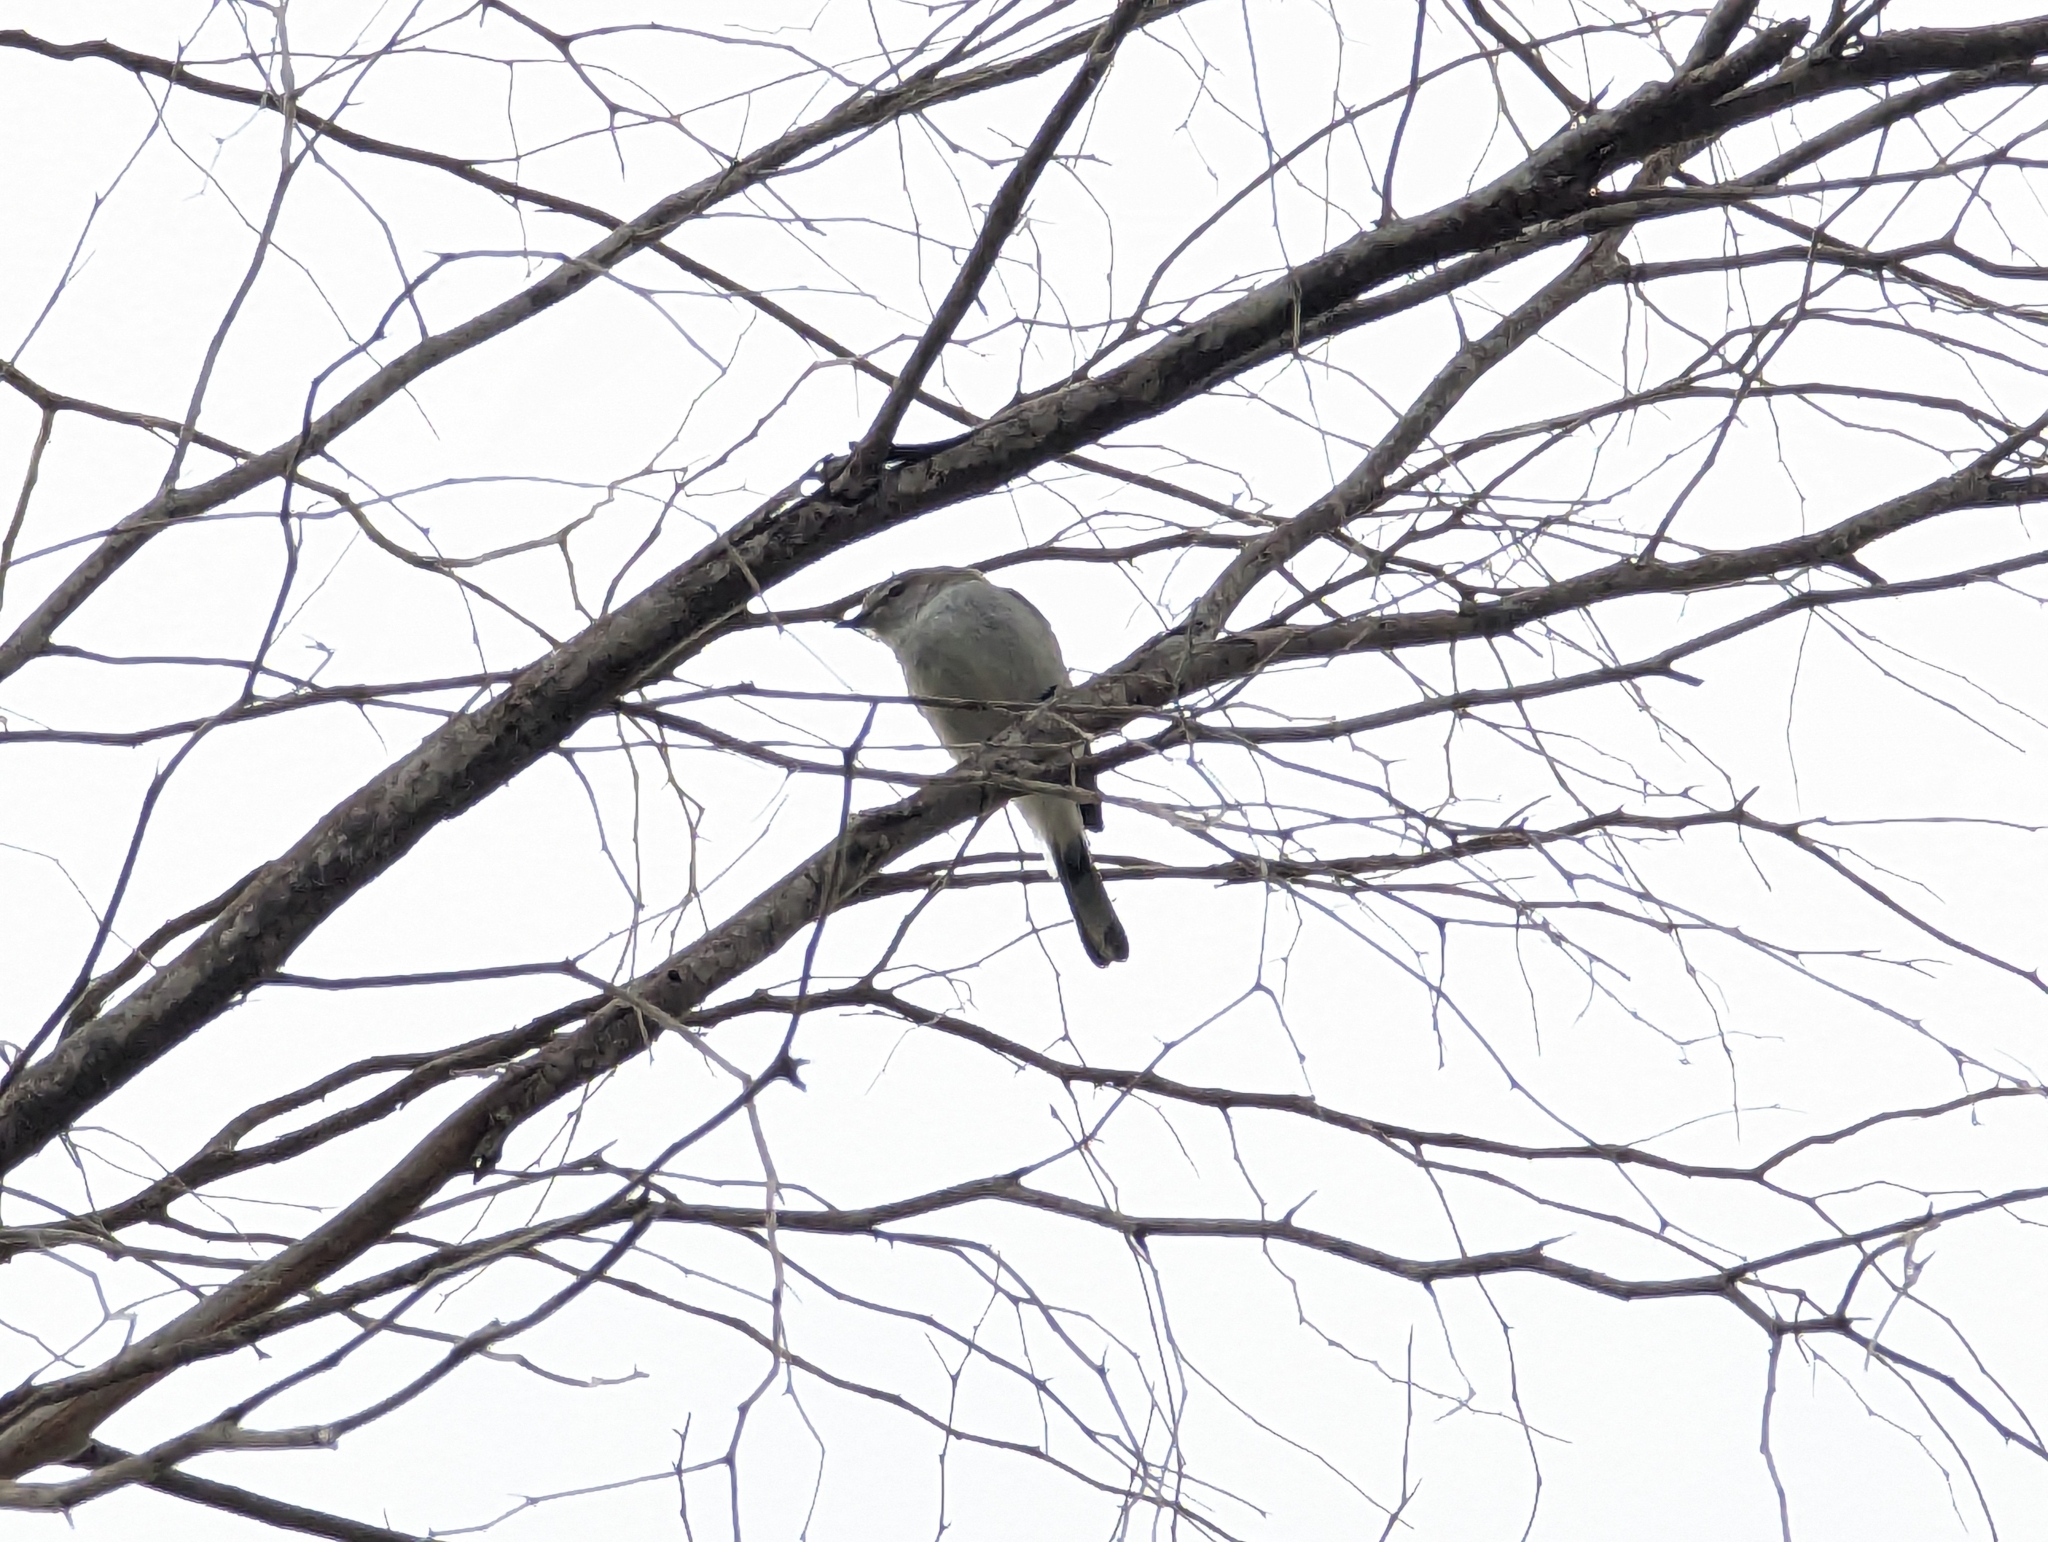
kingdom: Animalia
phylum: Chordata
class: Aves
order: Passeriformes
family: Acanthizidae
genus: Gerygone
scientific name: Gerygone fusca
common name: Western gerygone
